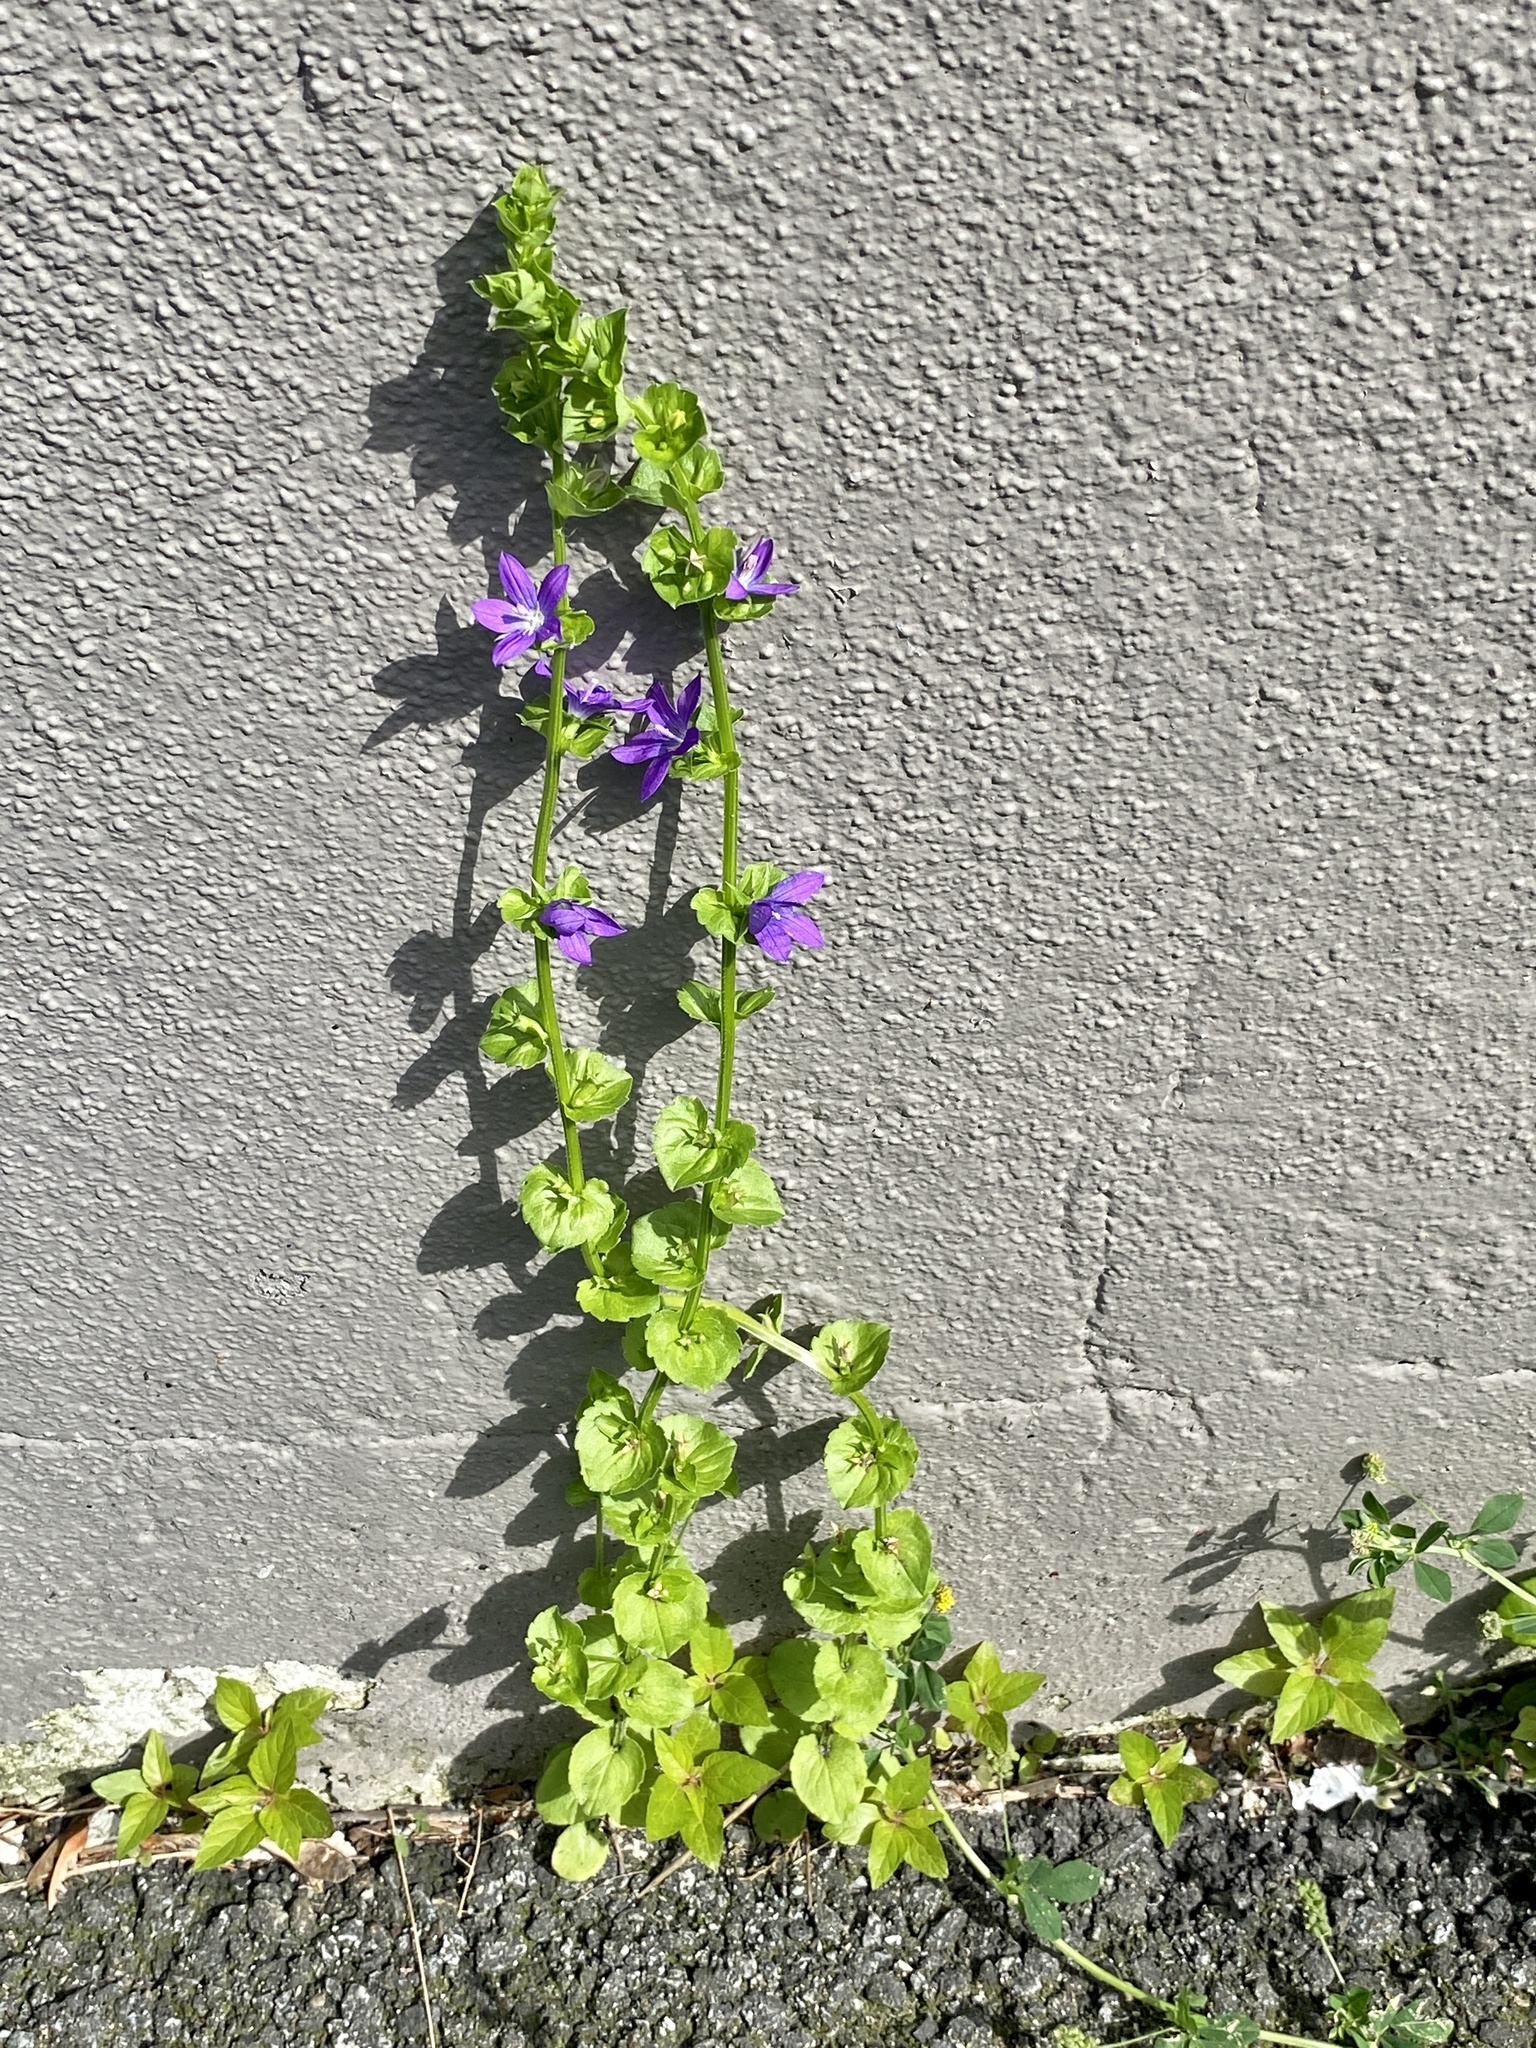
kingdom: Plantae
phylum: Tracheophyta
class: Magnoliopsida
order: Asterales
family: Campanulaceae
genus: Triodanis
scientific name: Triodanis perfoliata
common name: Clasping venus' looking-glass
